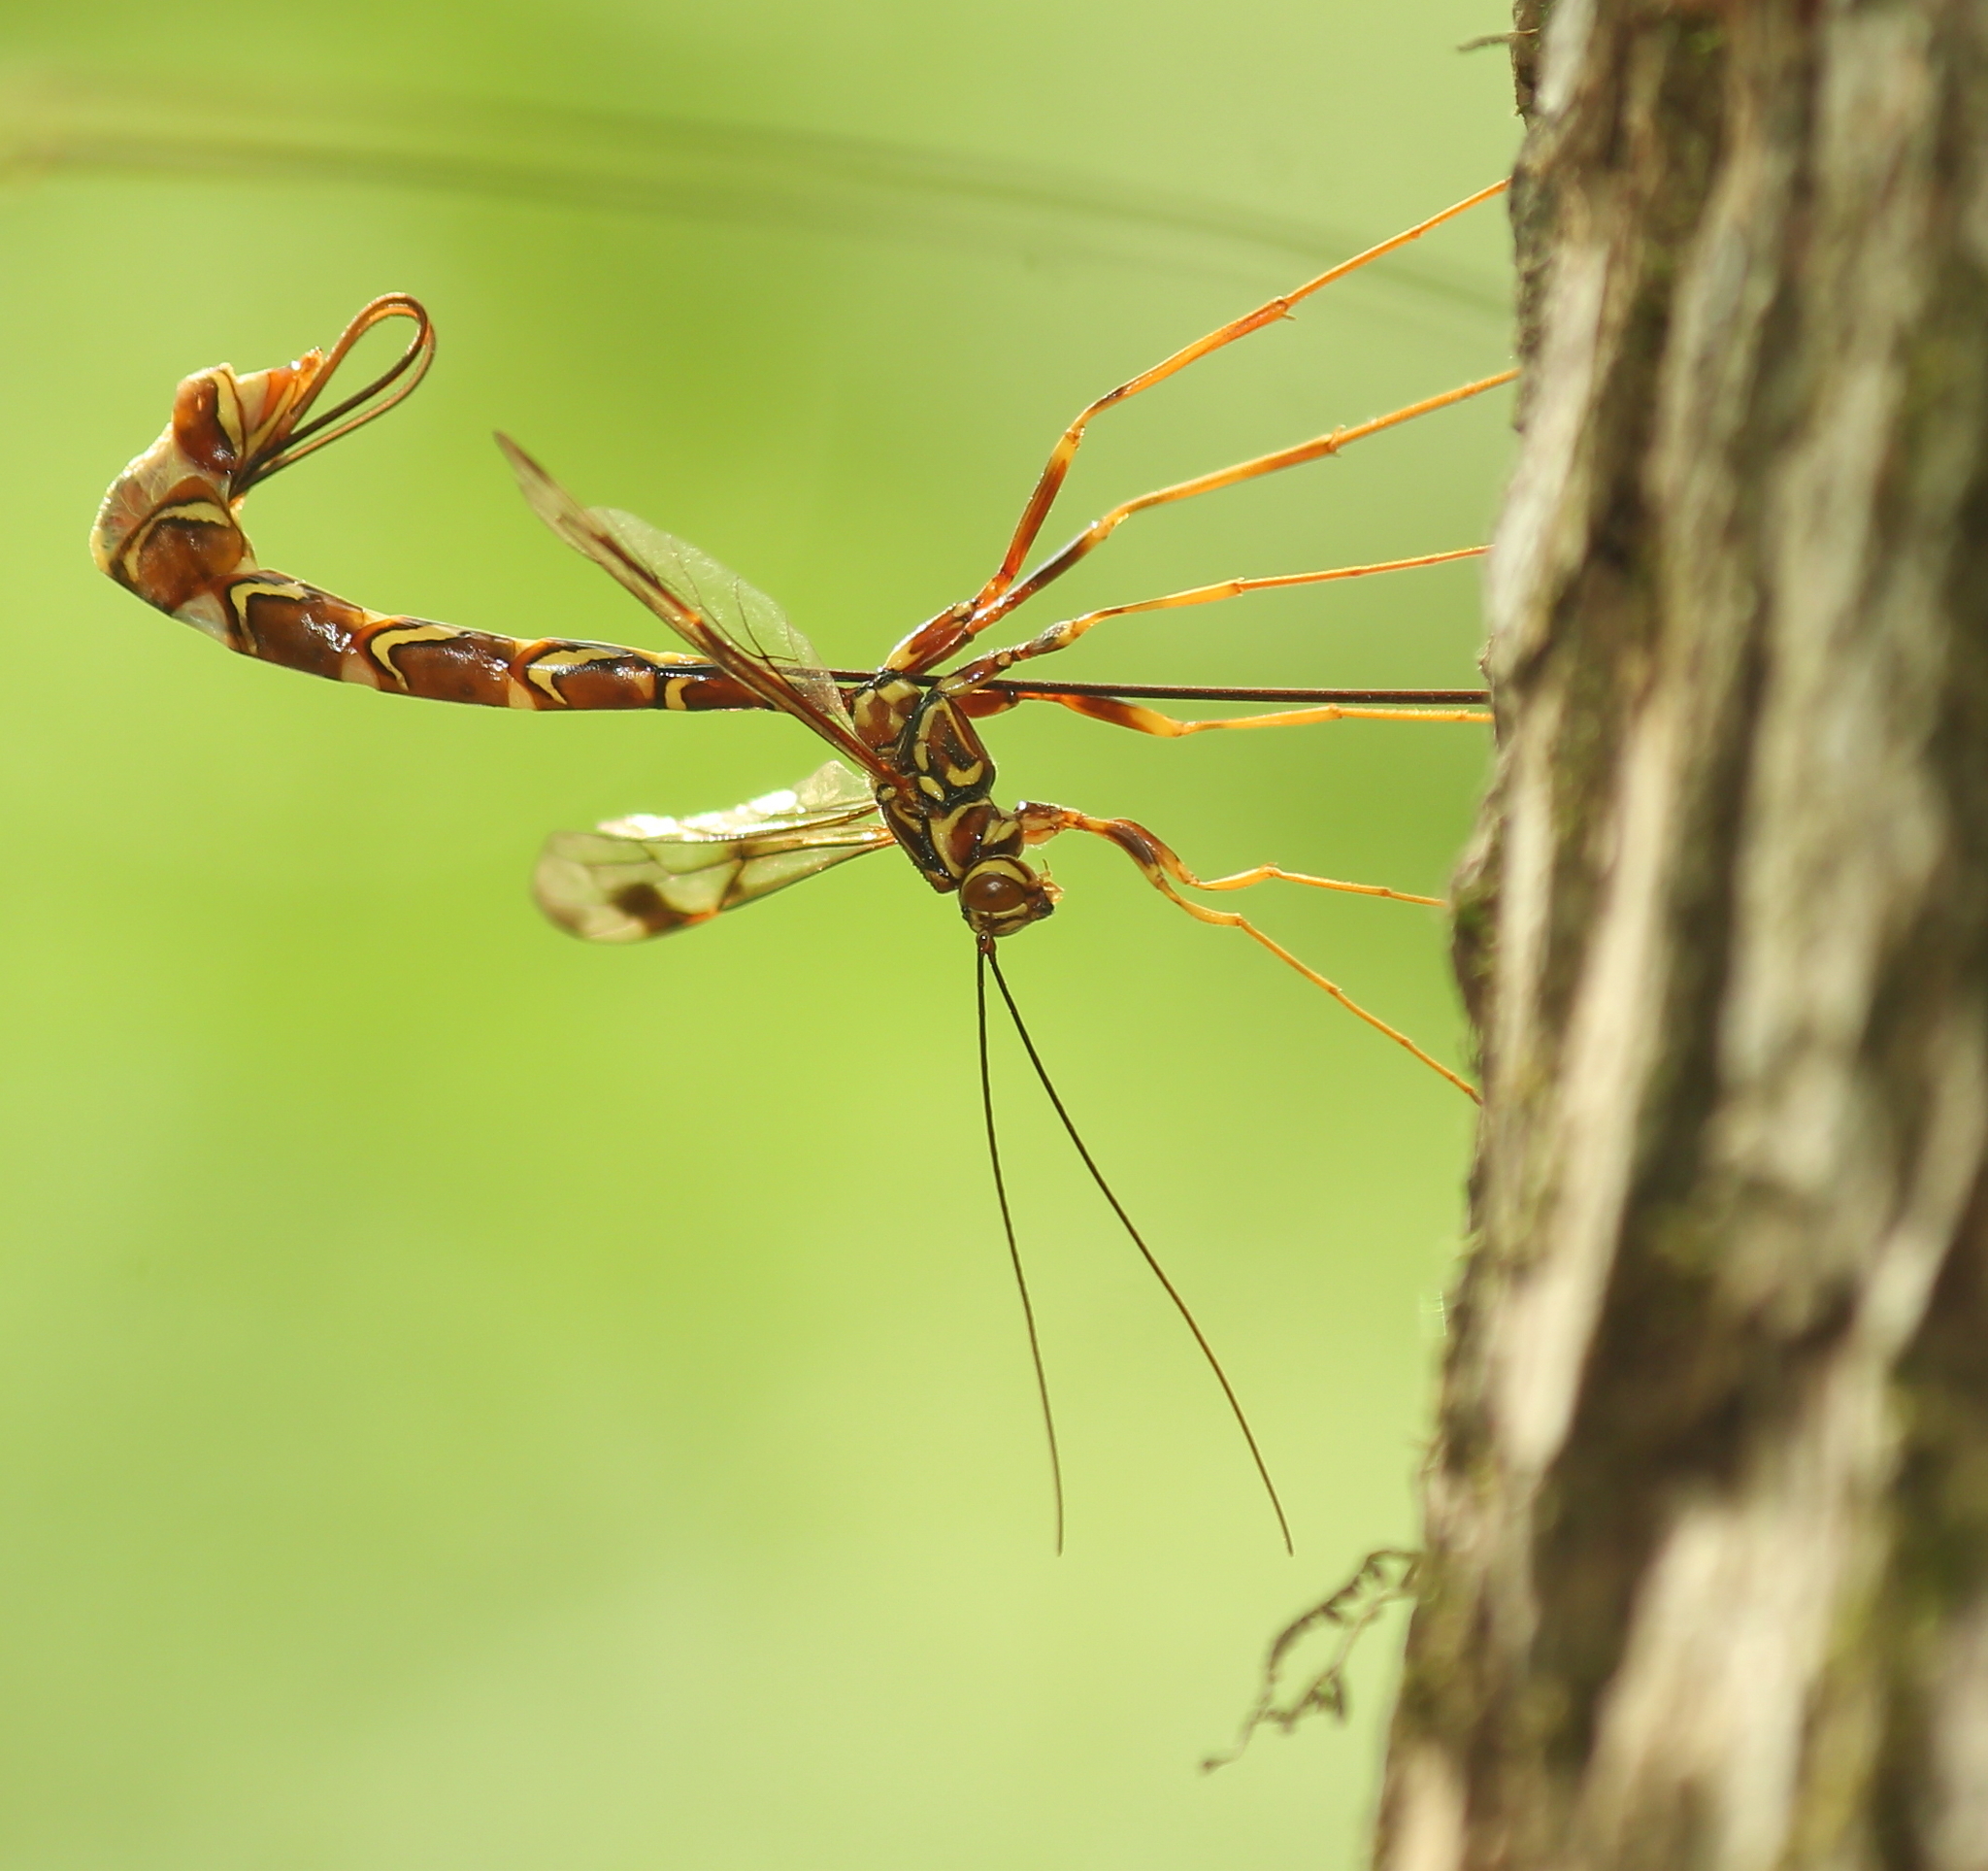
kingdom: Animalia
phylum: Arthropoda
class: Insecta
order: Hymenoptera
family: Ichneumonidae
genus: Megarhyssa
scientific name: Megarhyssa macrura
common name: Long-tailed giant ichneumonid wasp
